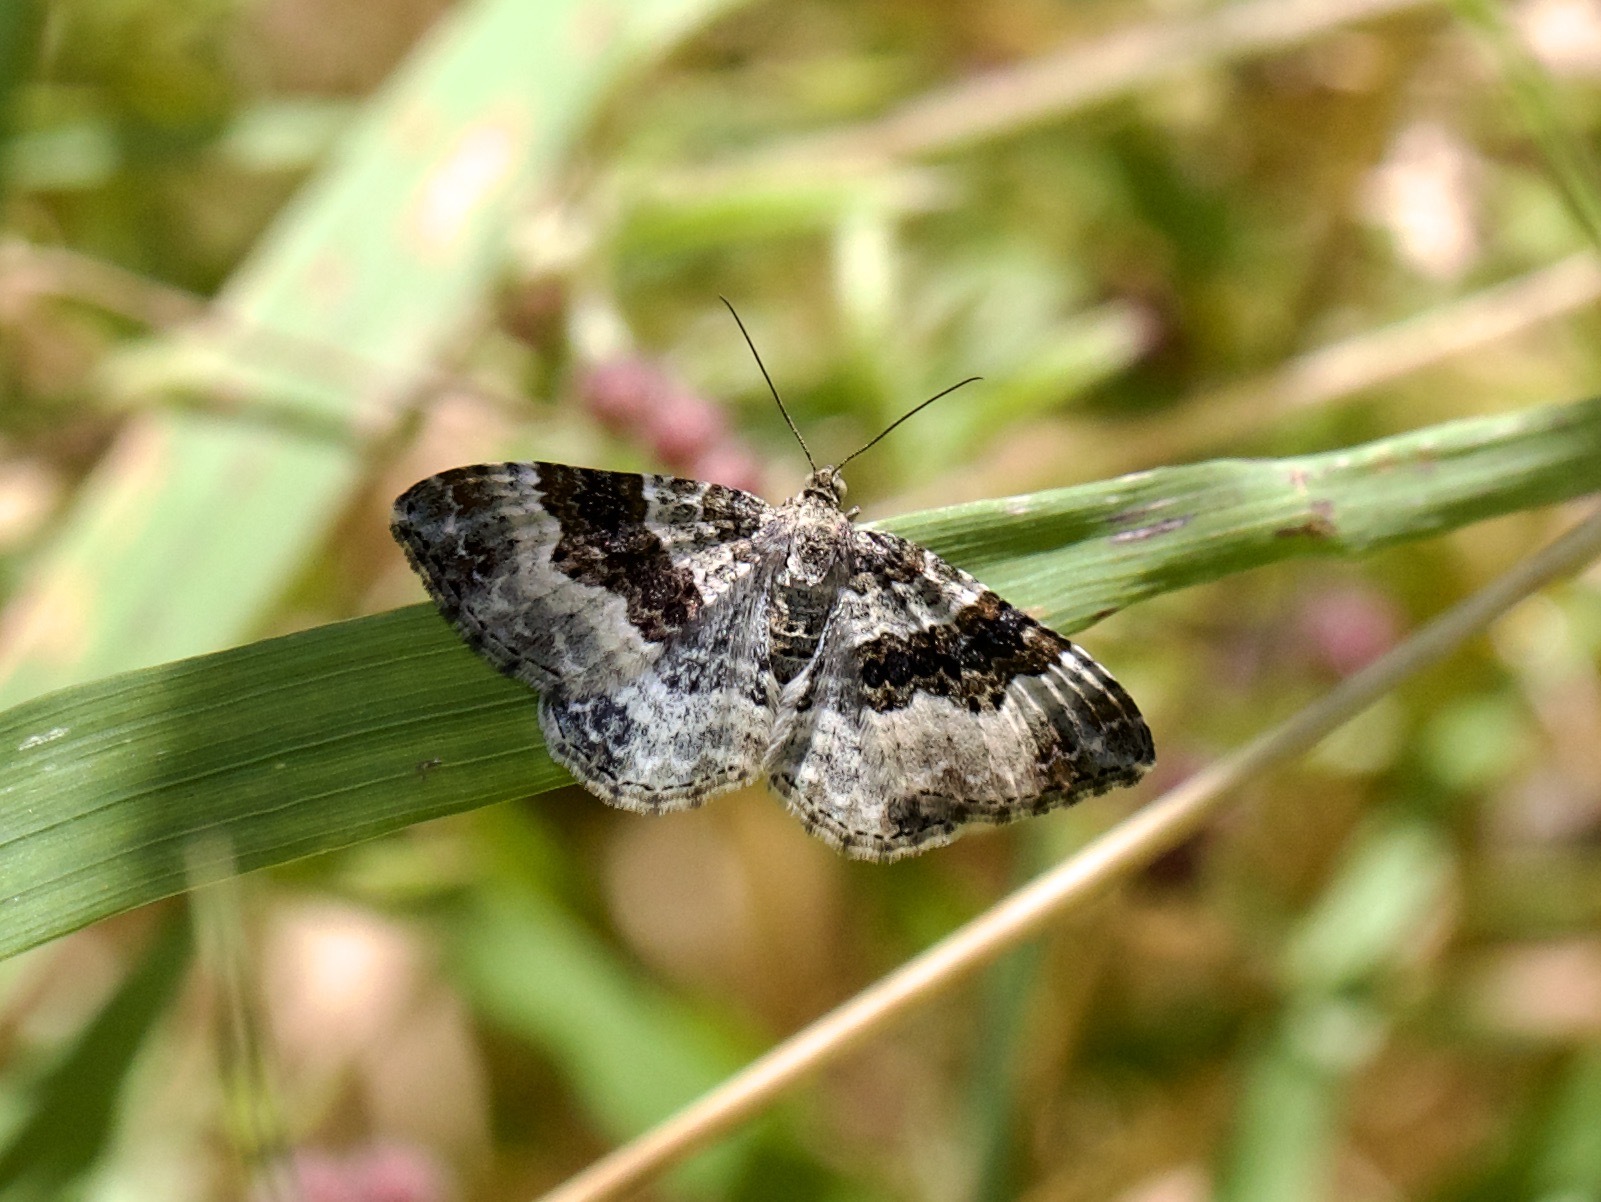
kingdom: Animalia
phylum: Arthropoda
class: Insecta
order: Lepidoptera
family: Geometridae
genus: Epirrhoe
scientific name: Epirrhoe alternata
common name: Common carpet
